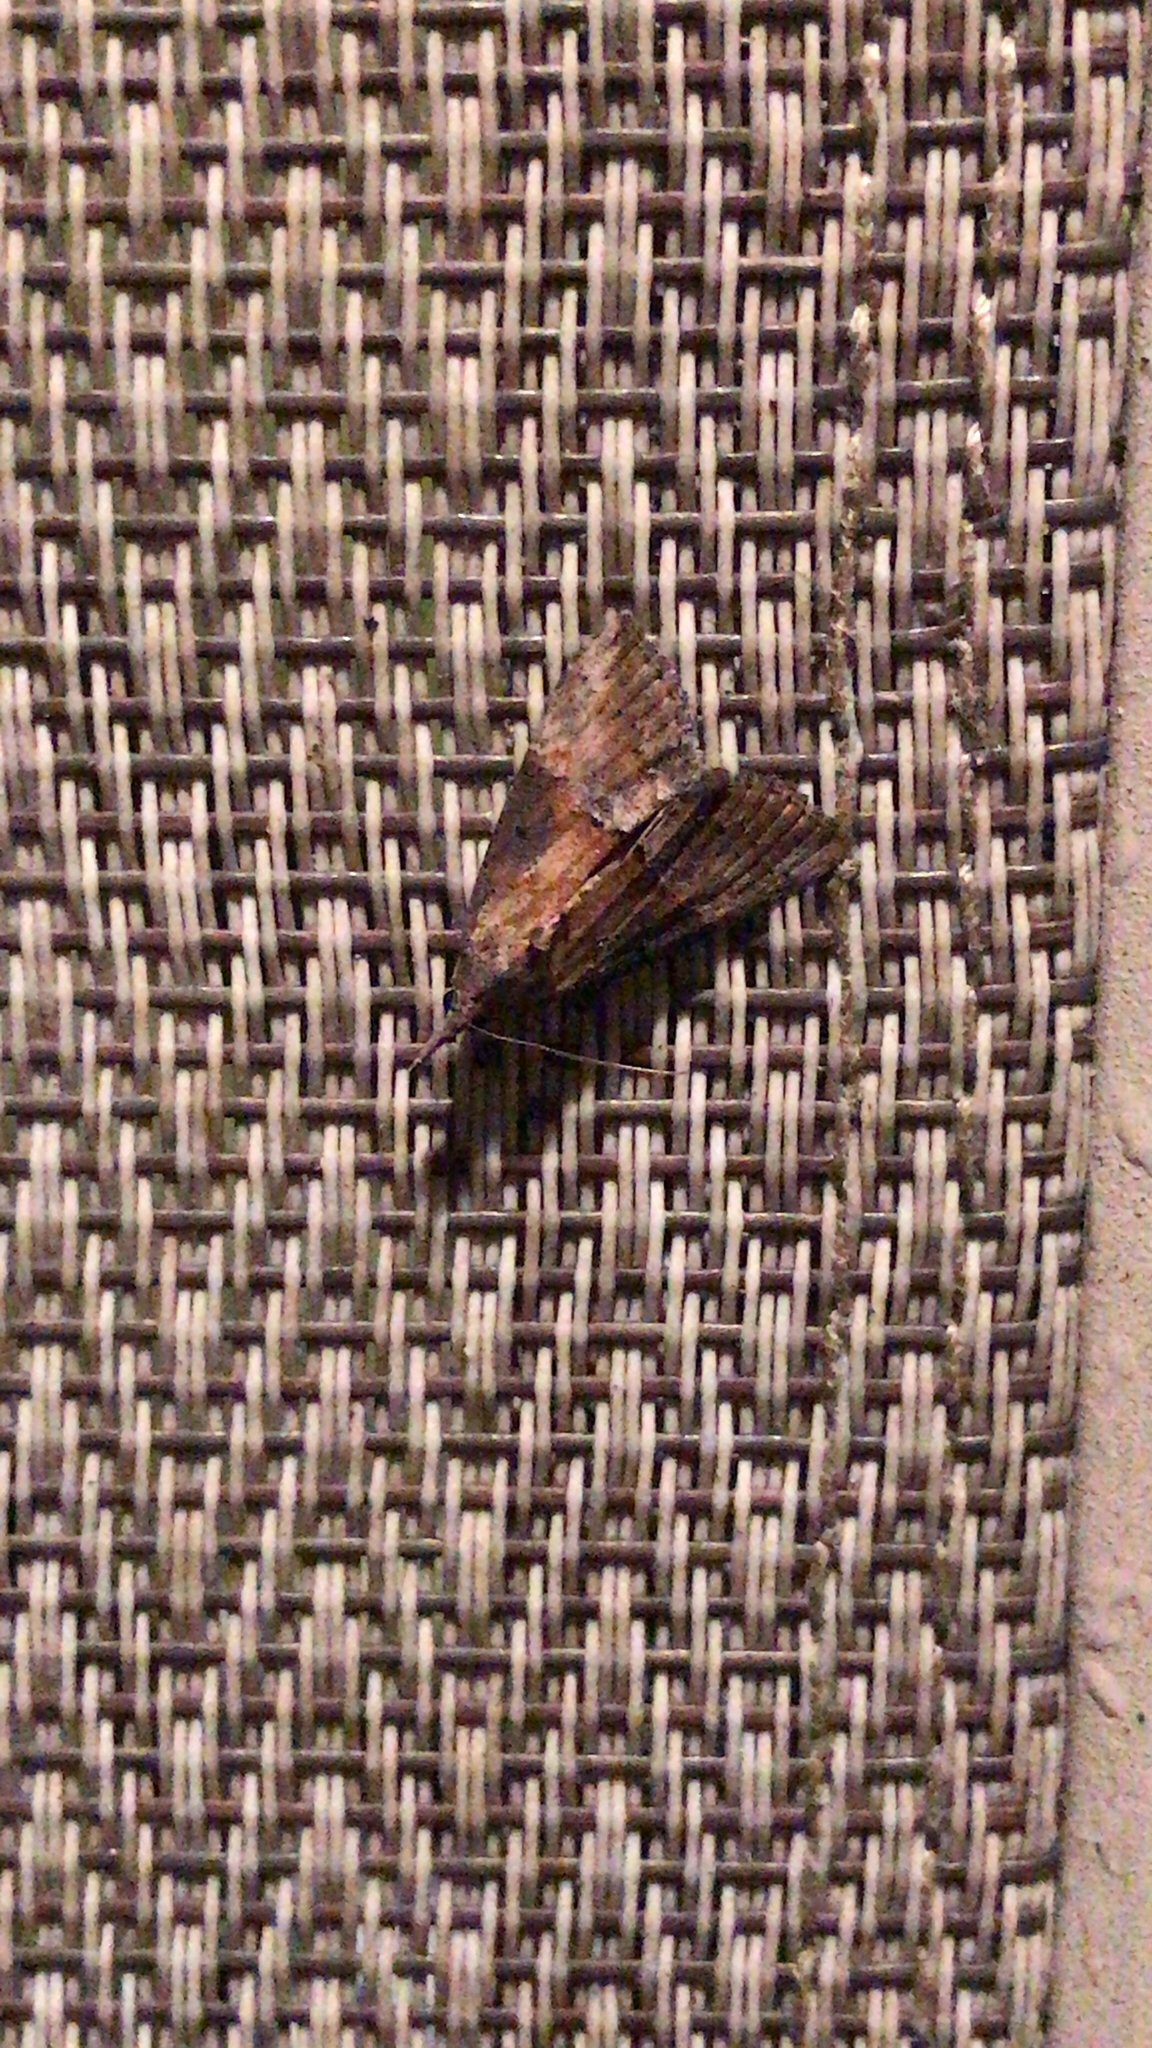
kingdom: Animalia
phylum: Arthropoda
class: Insecta
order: Lepidoptera
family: Erebidae
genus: Hypena
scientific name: Hypena scabra
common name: Green cloverworm
